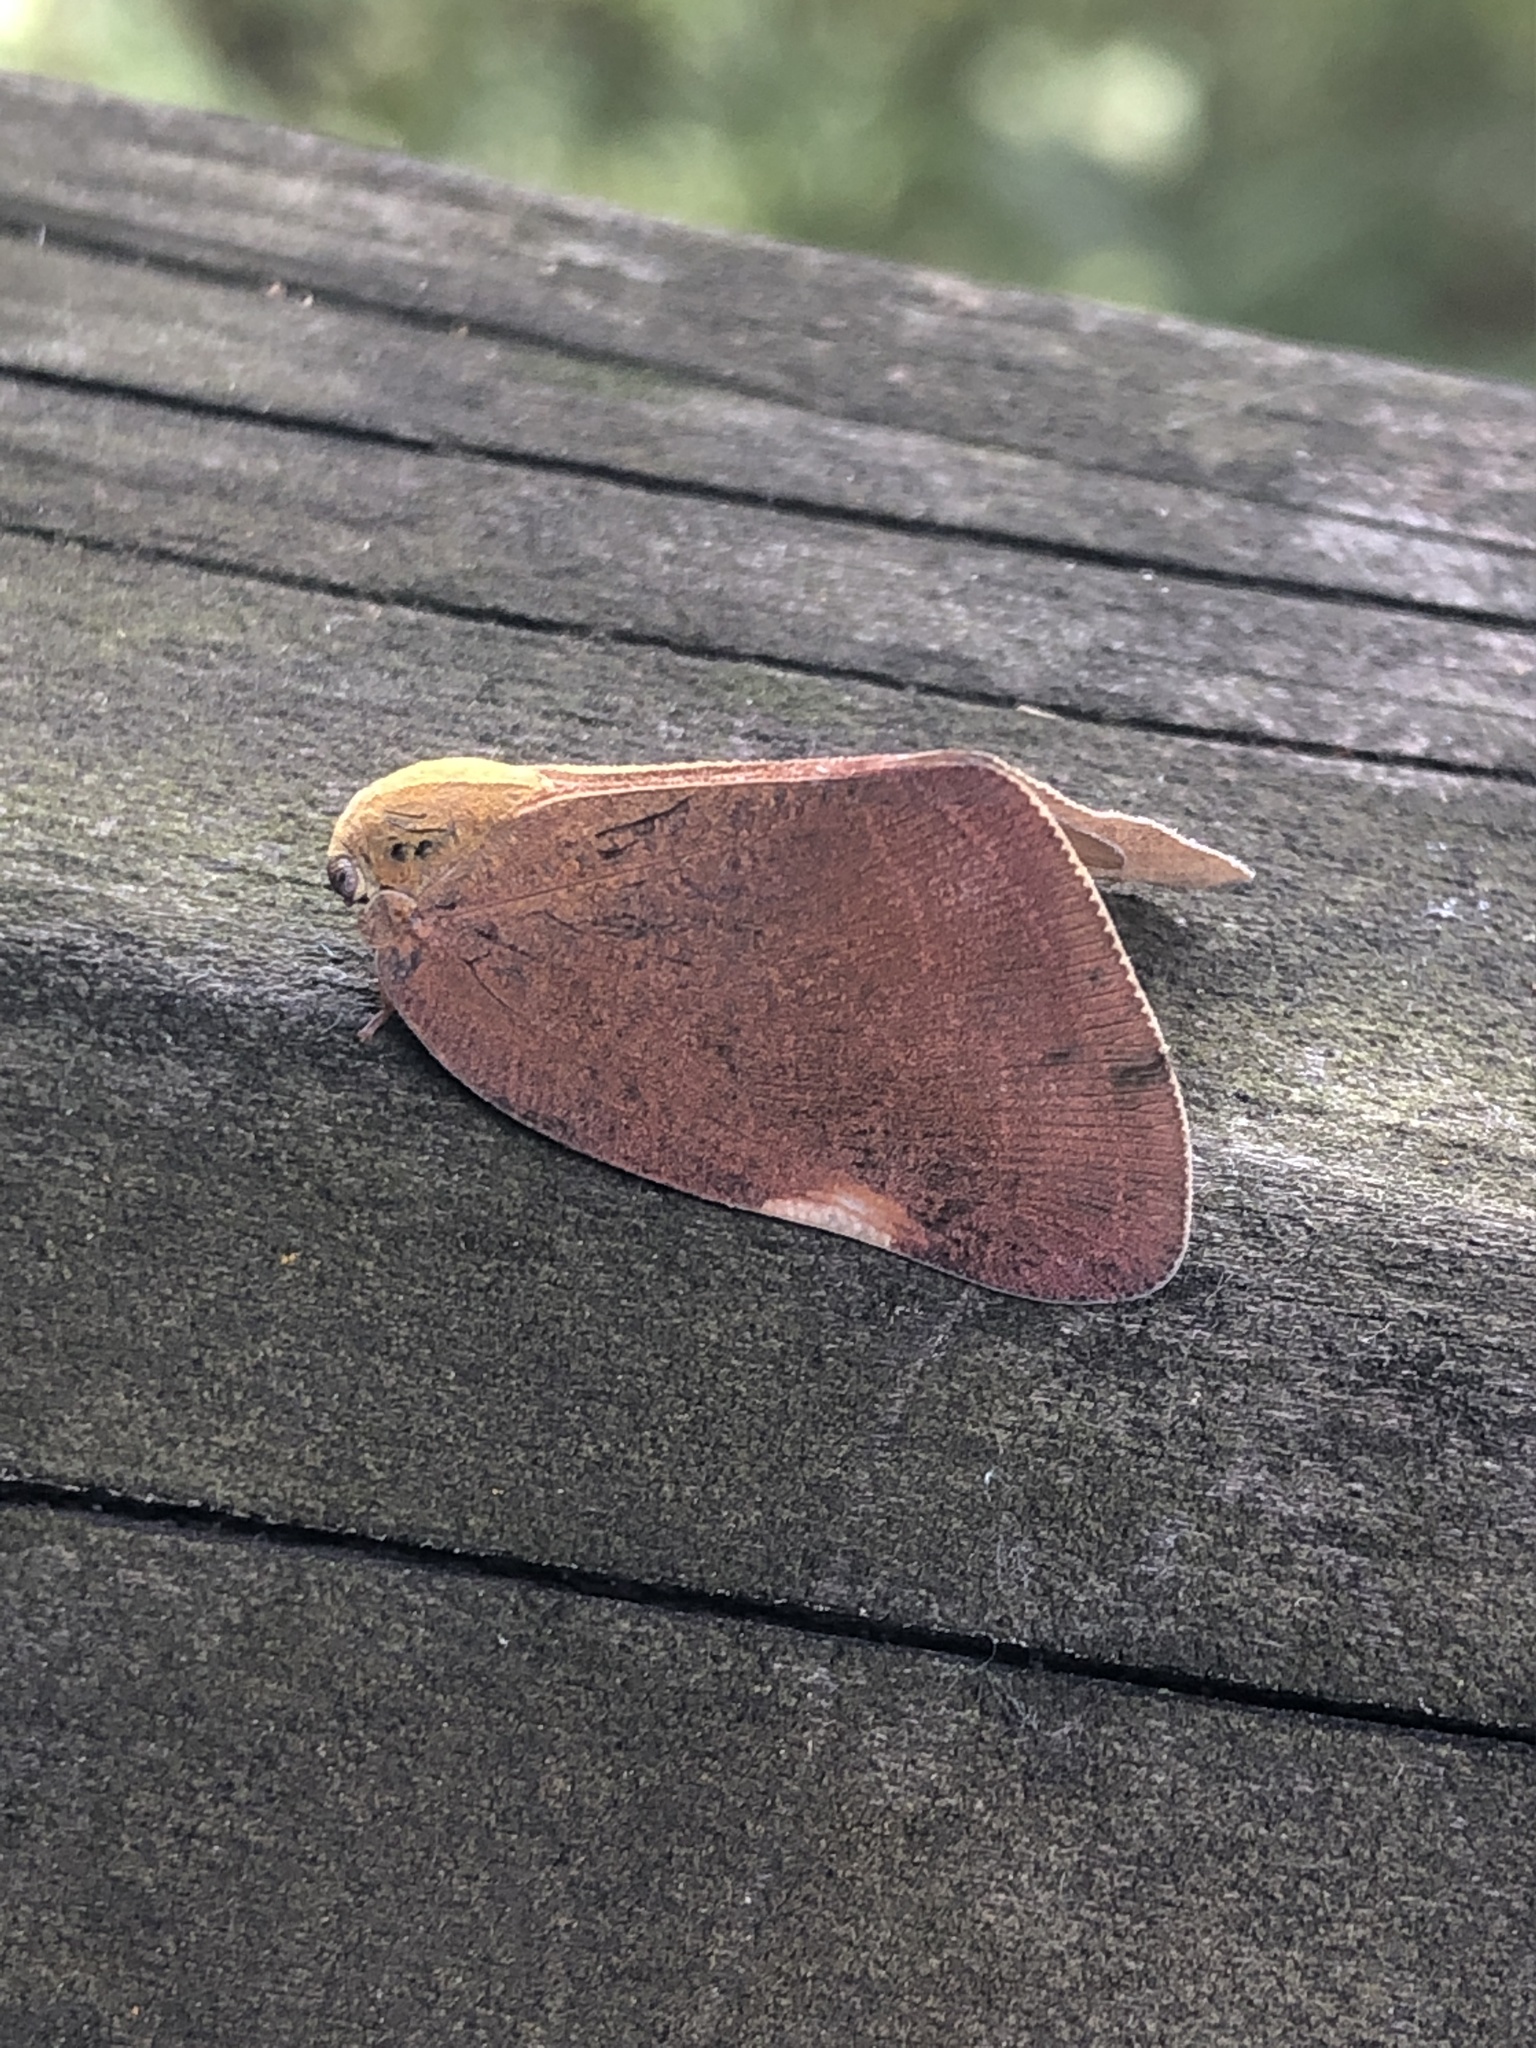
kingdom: Animalia
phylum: Arthropoda
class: Insecta
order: Hemiptera
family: Ricaniidae
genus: Ricanula
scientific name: Ricanula sublimata
